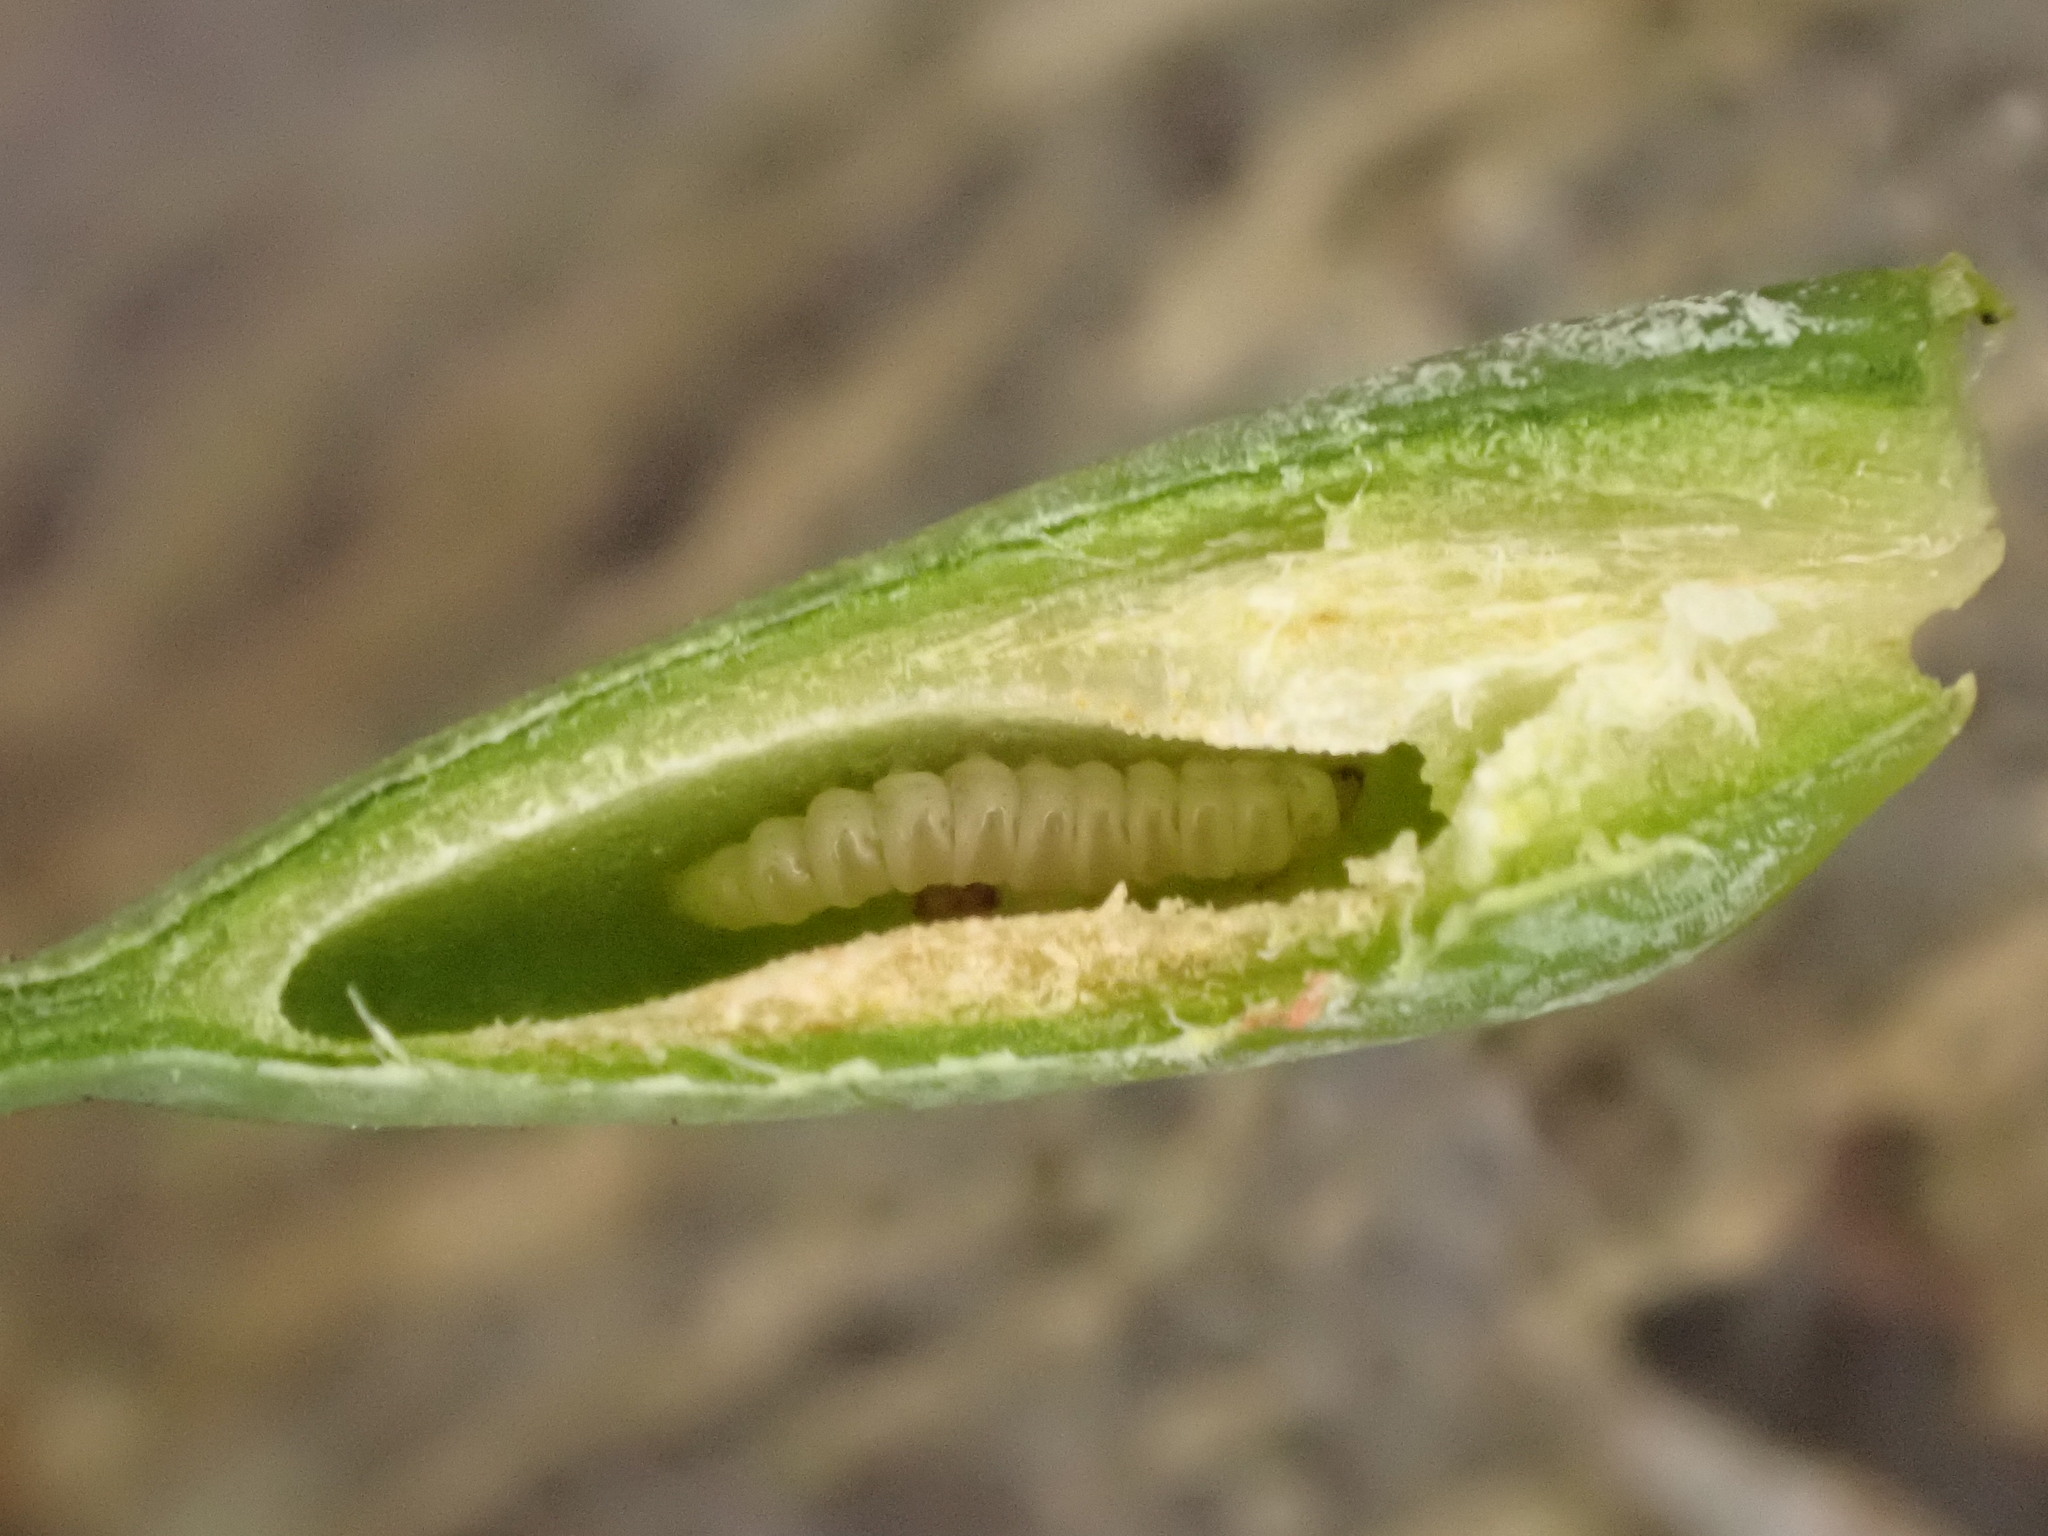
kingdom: Animalia
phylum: Arthropoda
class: Insecta
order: Lepidoptera
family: Gracillariidae
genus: Acrocercops
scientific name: Acrocercops leucotoma
